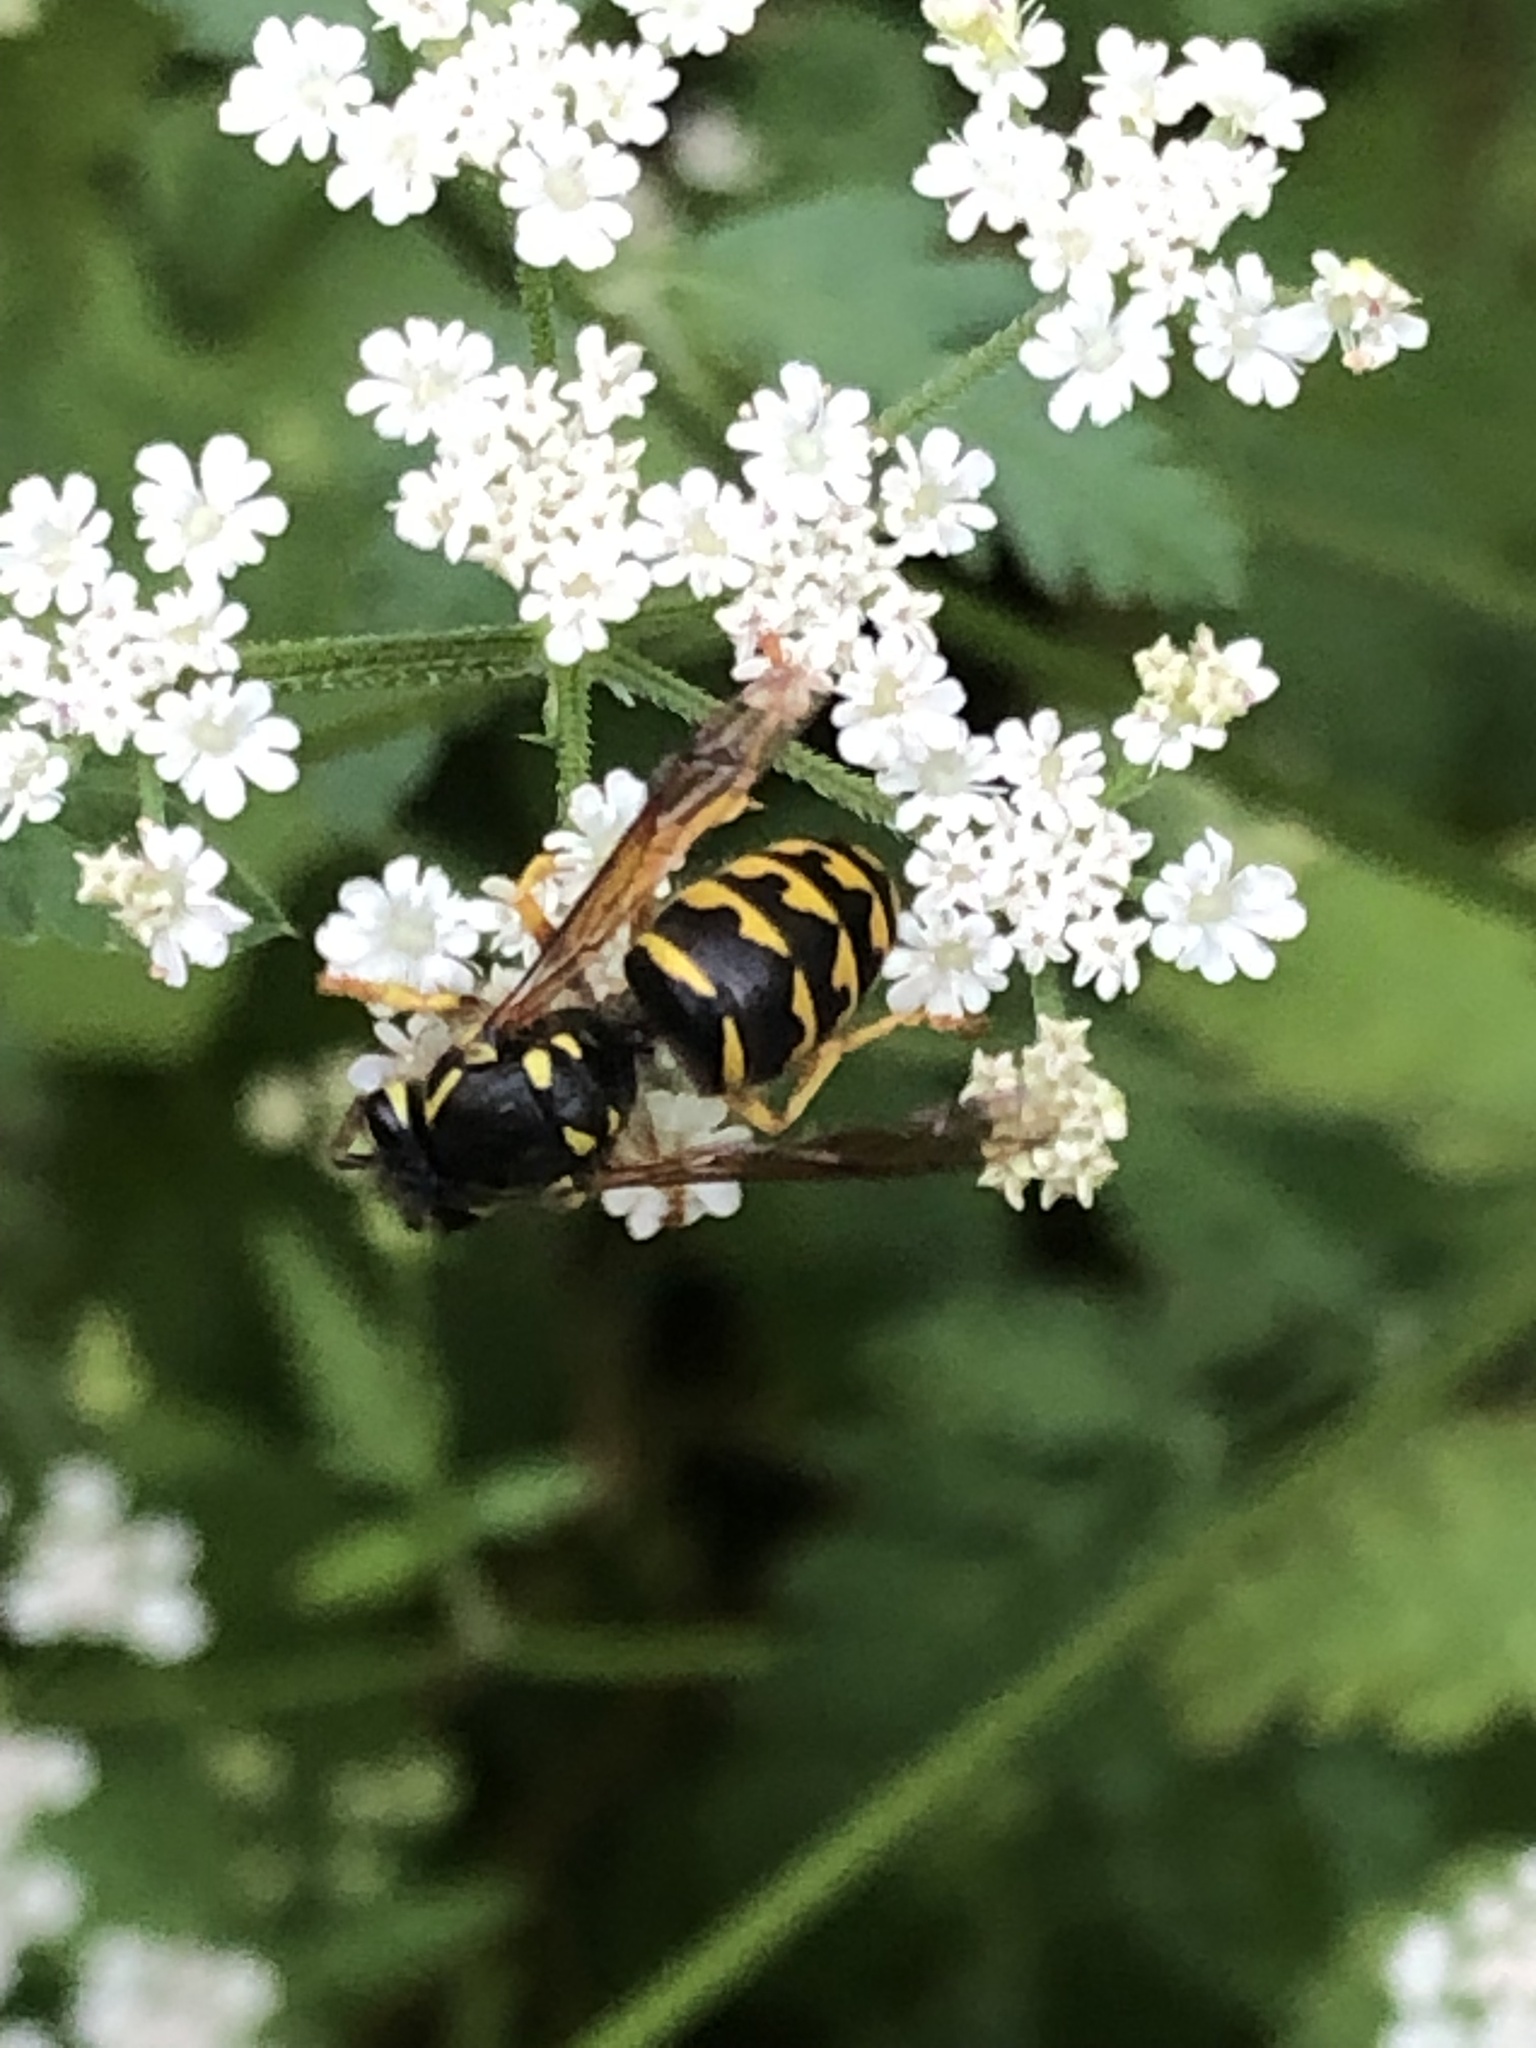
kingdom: Animalia
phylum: Arthropoda
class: Insecta
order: Hymenoptera
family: Vespidae
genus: Dolichovespula
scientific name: Dolichovespula arenaria
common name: Aerial yellowjacket
